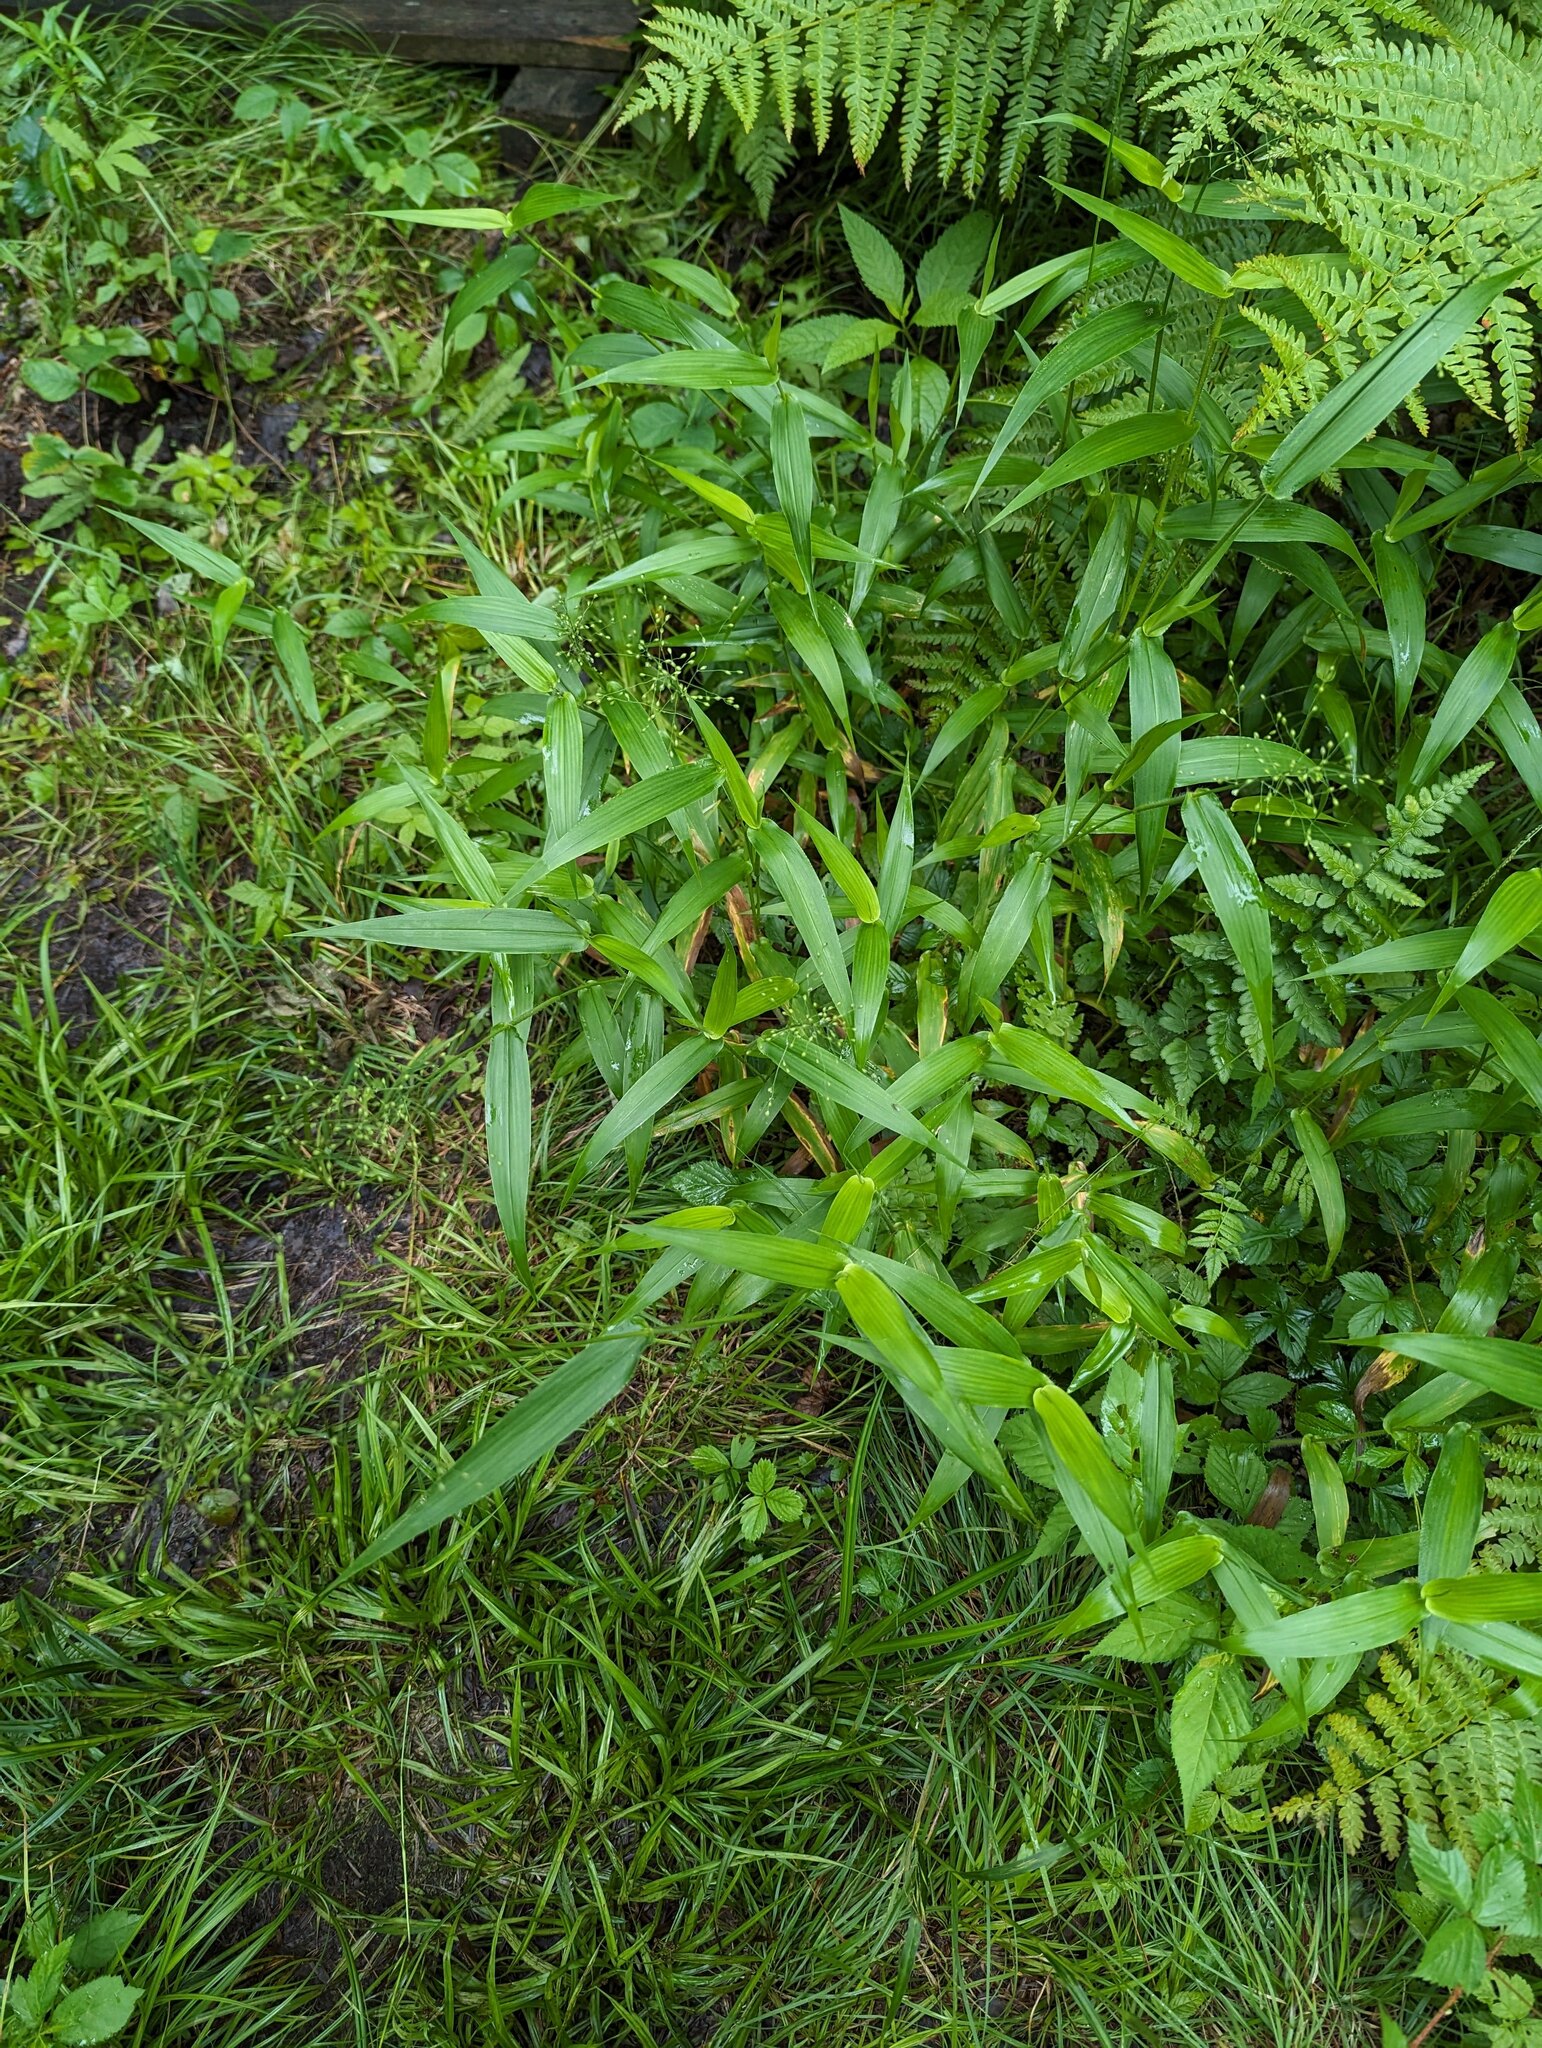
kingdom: Plantae
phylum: Tracheophyta
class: Liliopsida
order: Poales
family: Poaceae
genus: Dichanthelium
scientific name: Dichanthelium clandestinum
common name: Deer-tongue grass
